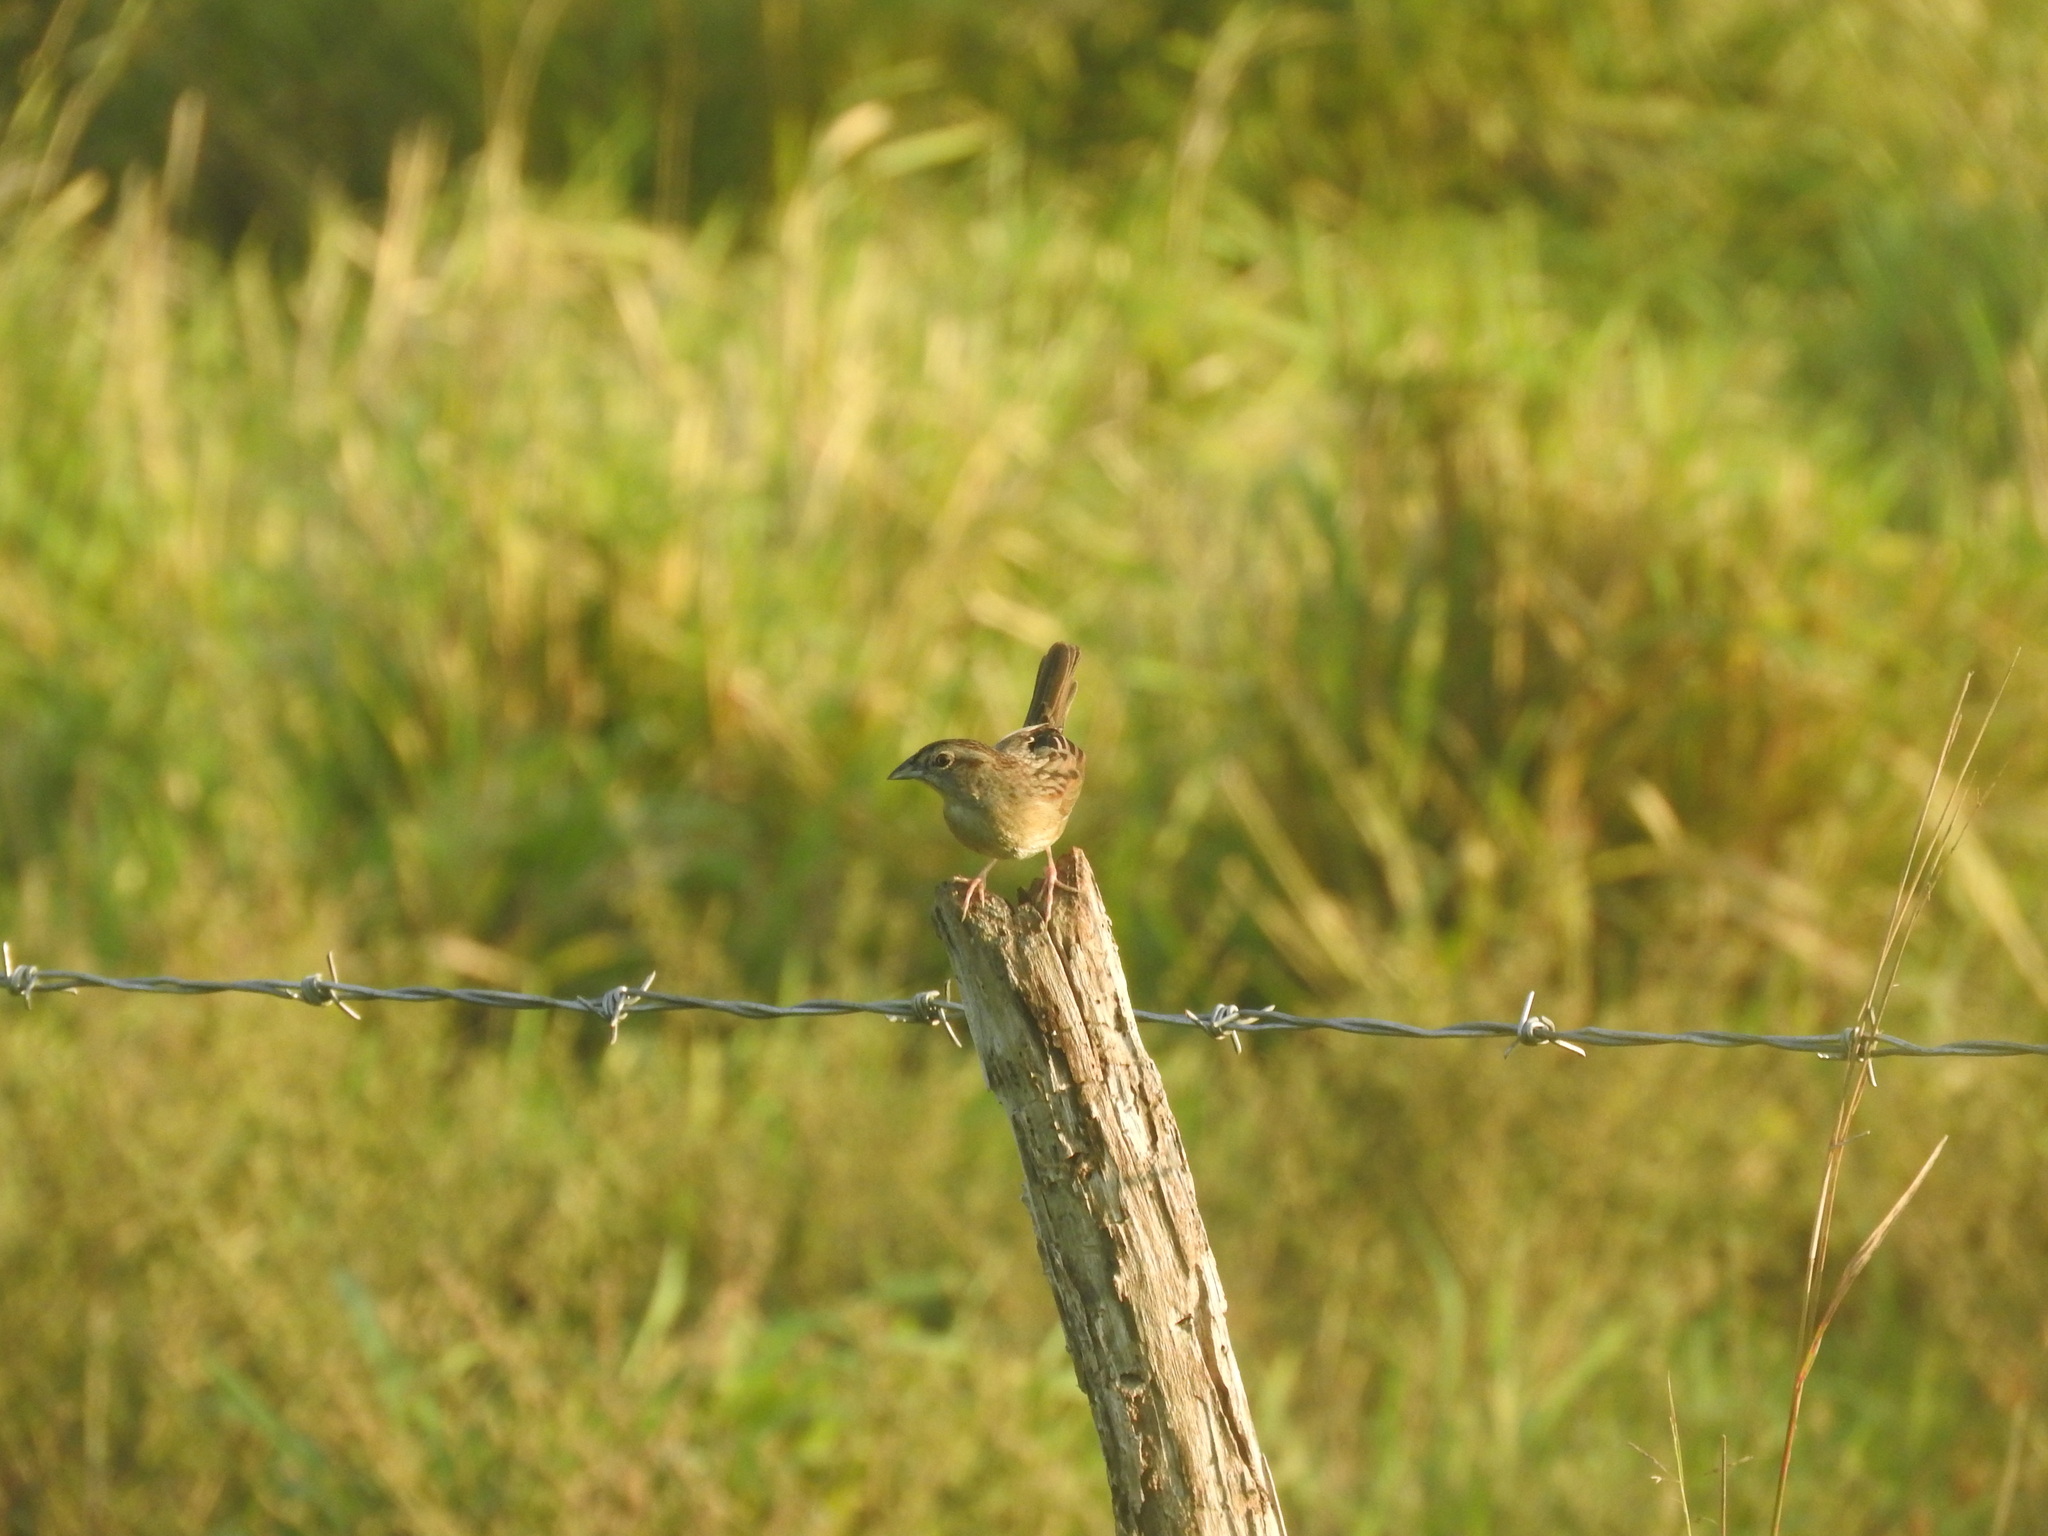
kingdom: Animalia
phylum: Chordata
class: Aves
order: Passeriformes
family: Passerellidae
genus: Peucaea
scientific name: Peucaea botterii
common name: Botteri's sparrow
